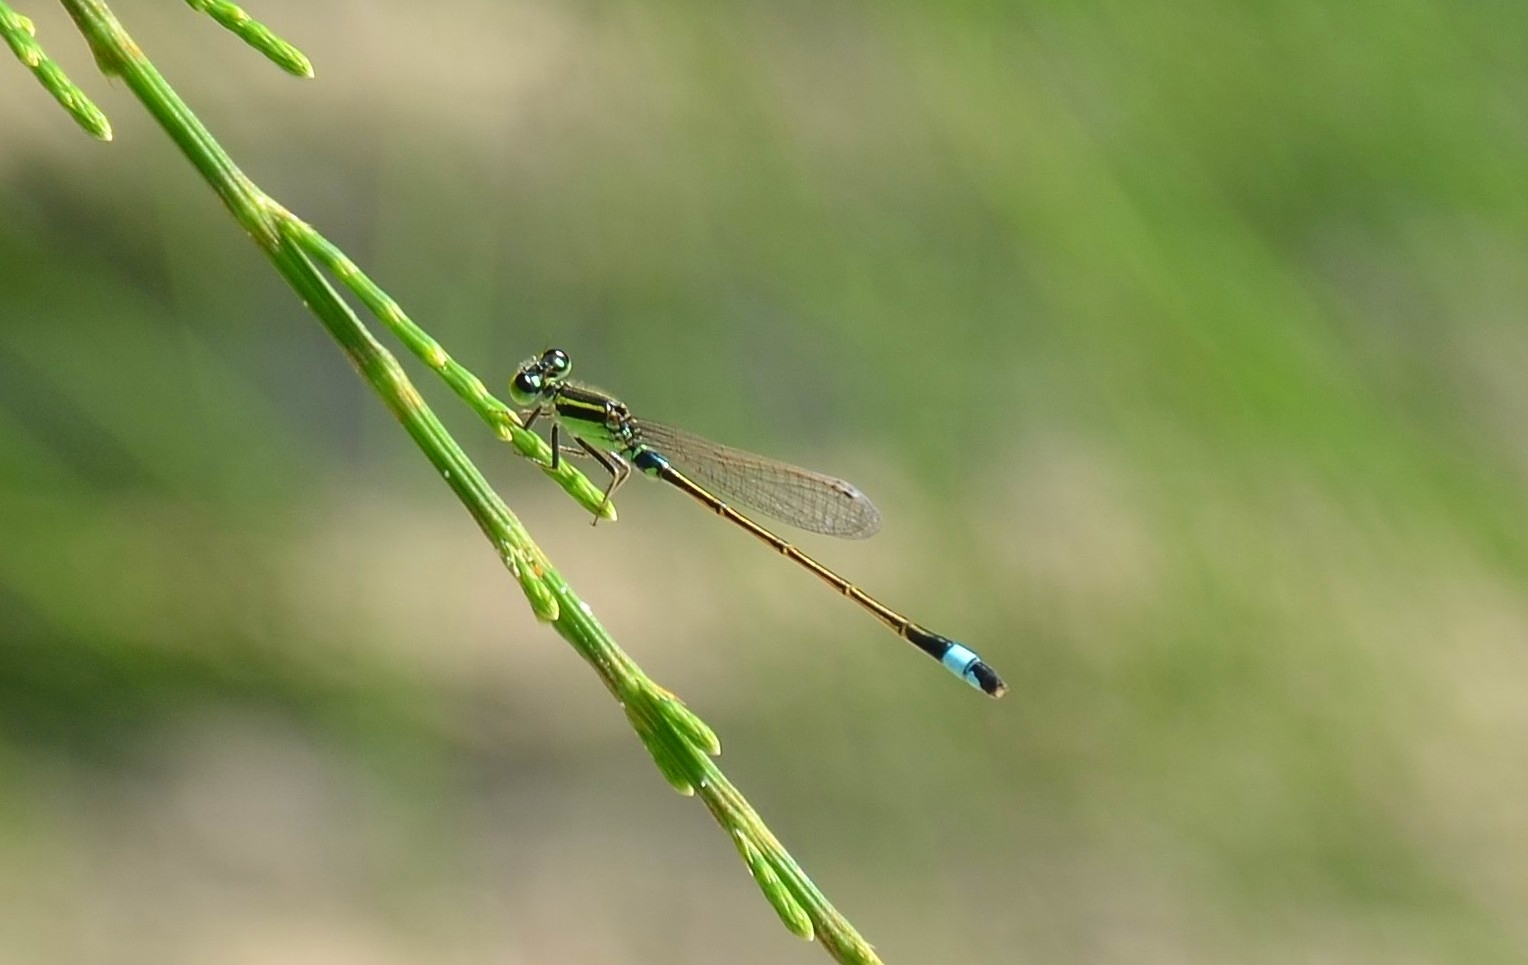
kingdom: Animalia
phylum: Arthropoda
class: Insecta
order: Odonata
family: Coenagrionidae
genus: Ischnura
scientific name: Ischnura senegalensis
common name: Tropical bluetail
